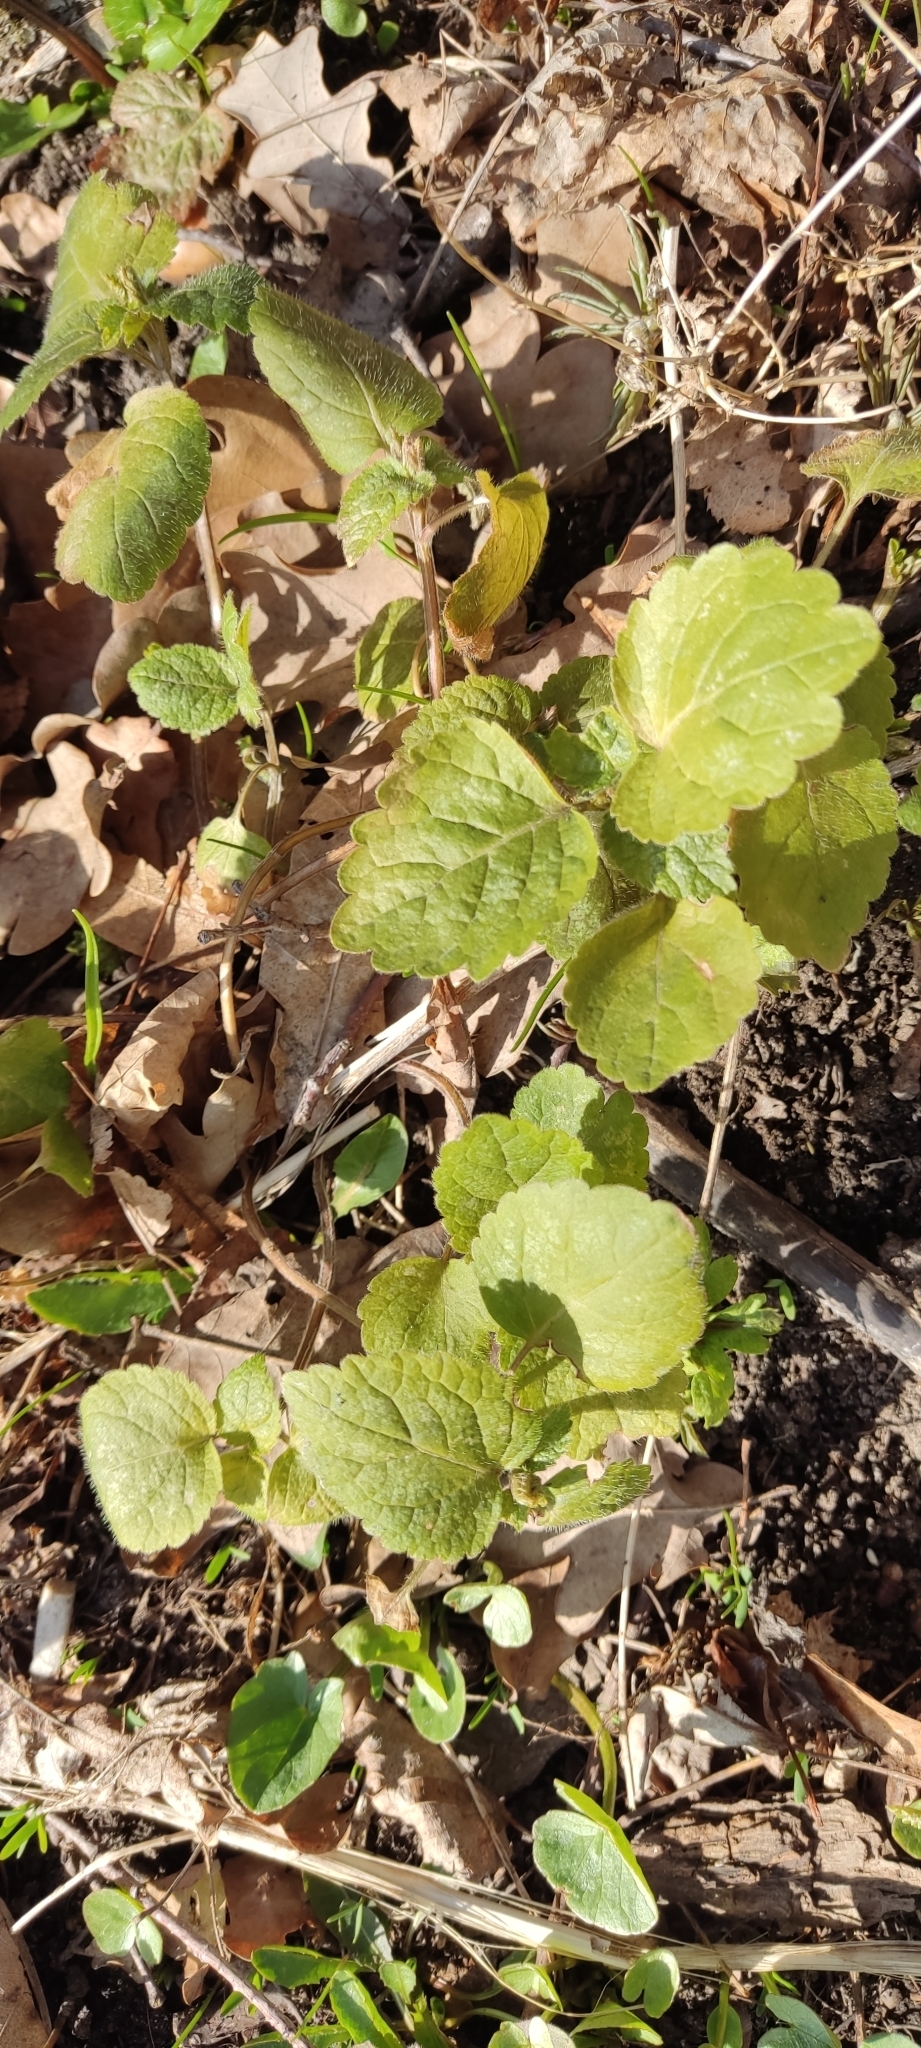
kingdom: Plantae
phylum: Tracheophyta
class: Magnoliopsida
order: Lamiales
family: Lamiaceae
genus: Lamium
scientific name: Lamium maculatum
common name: Spotted dead-nettle
